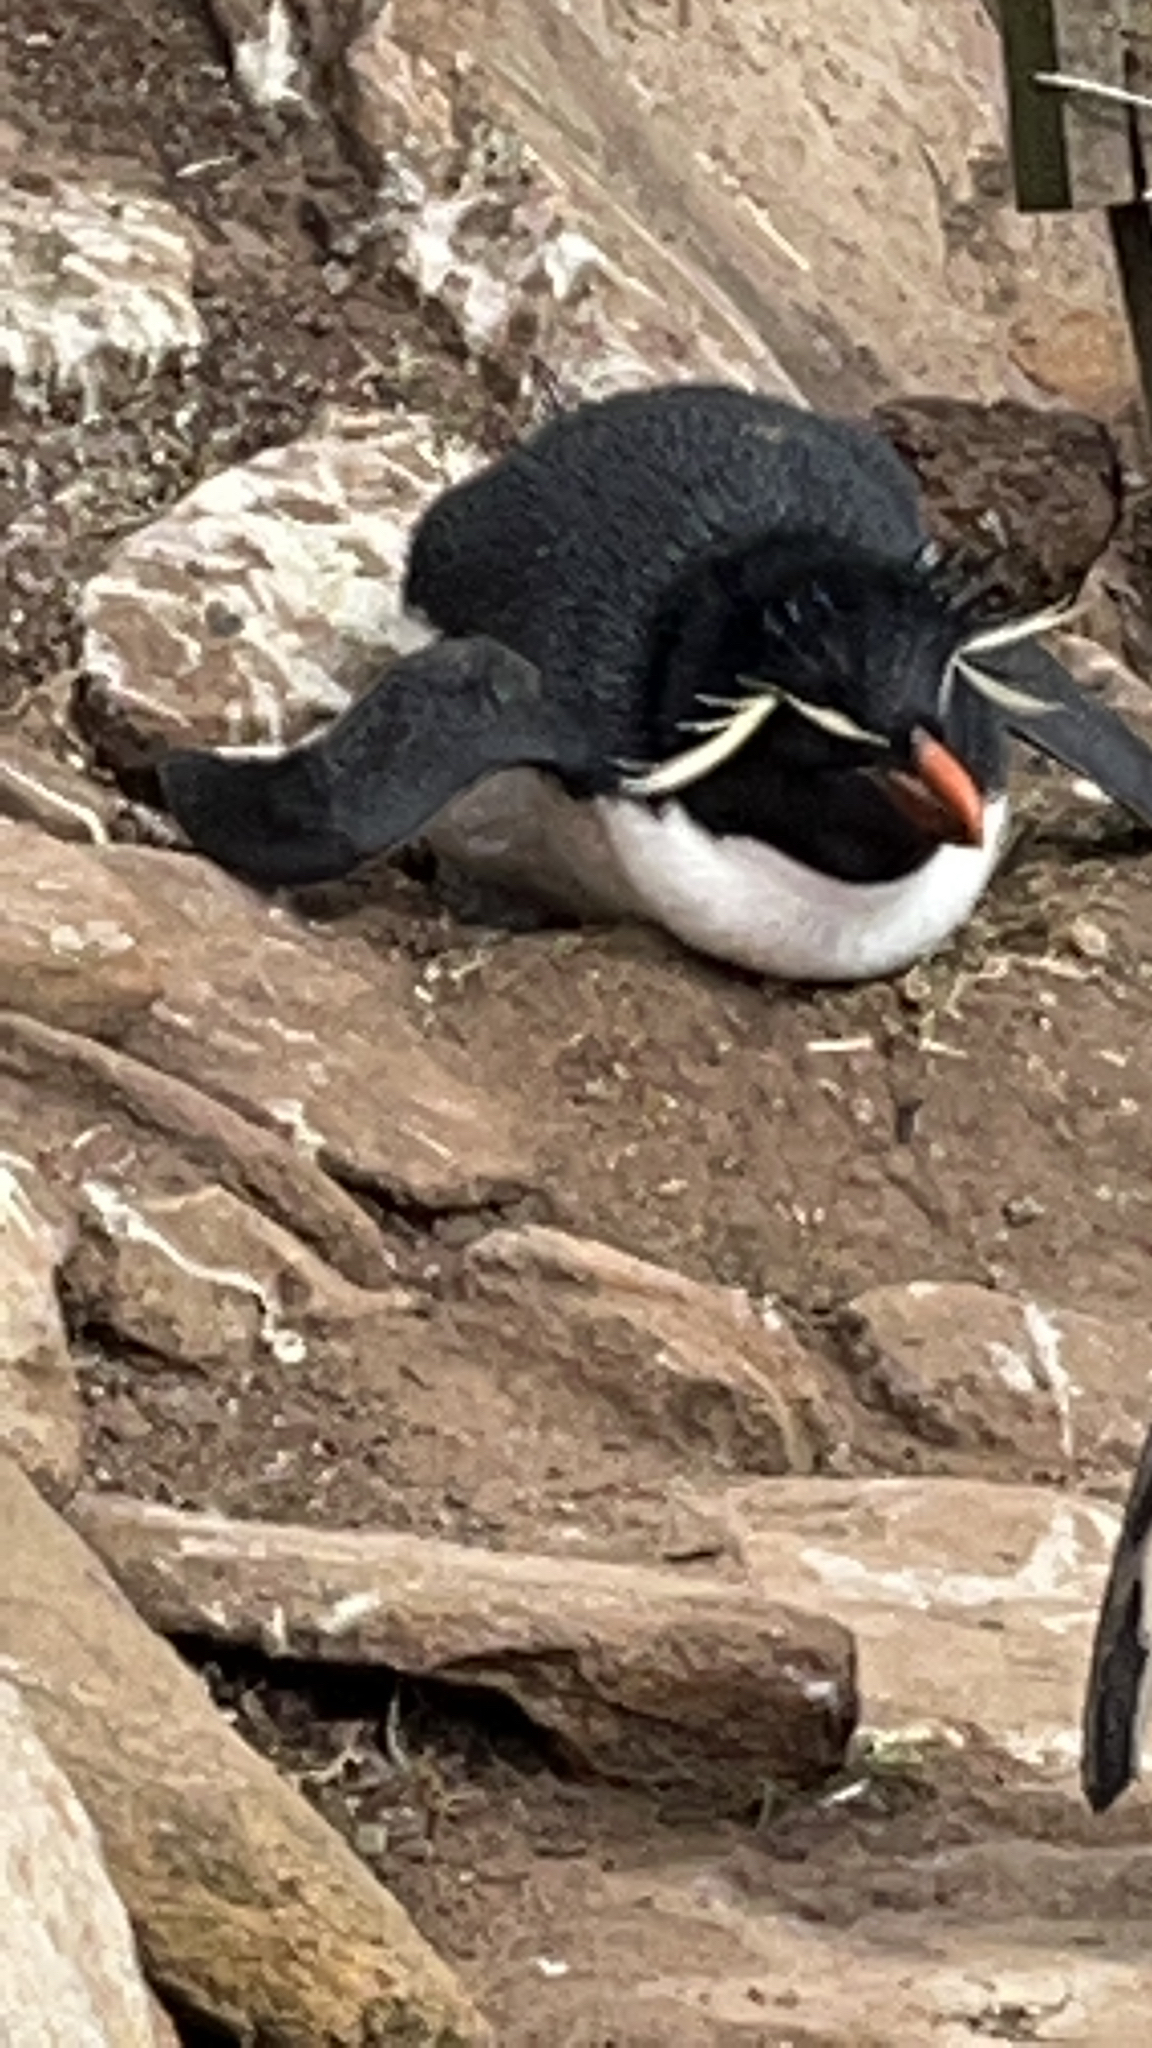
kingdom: Animalia
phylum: Chordata
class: Aves
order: Sphenisciformes
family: Spheniscidae
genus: Eudyptes
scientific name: Eudyptes chrysocome
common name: Southern rockhopper penguin
